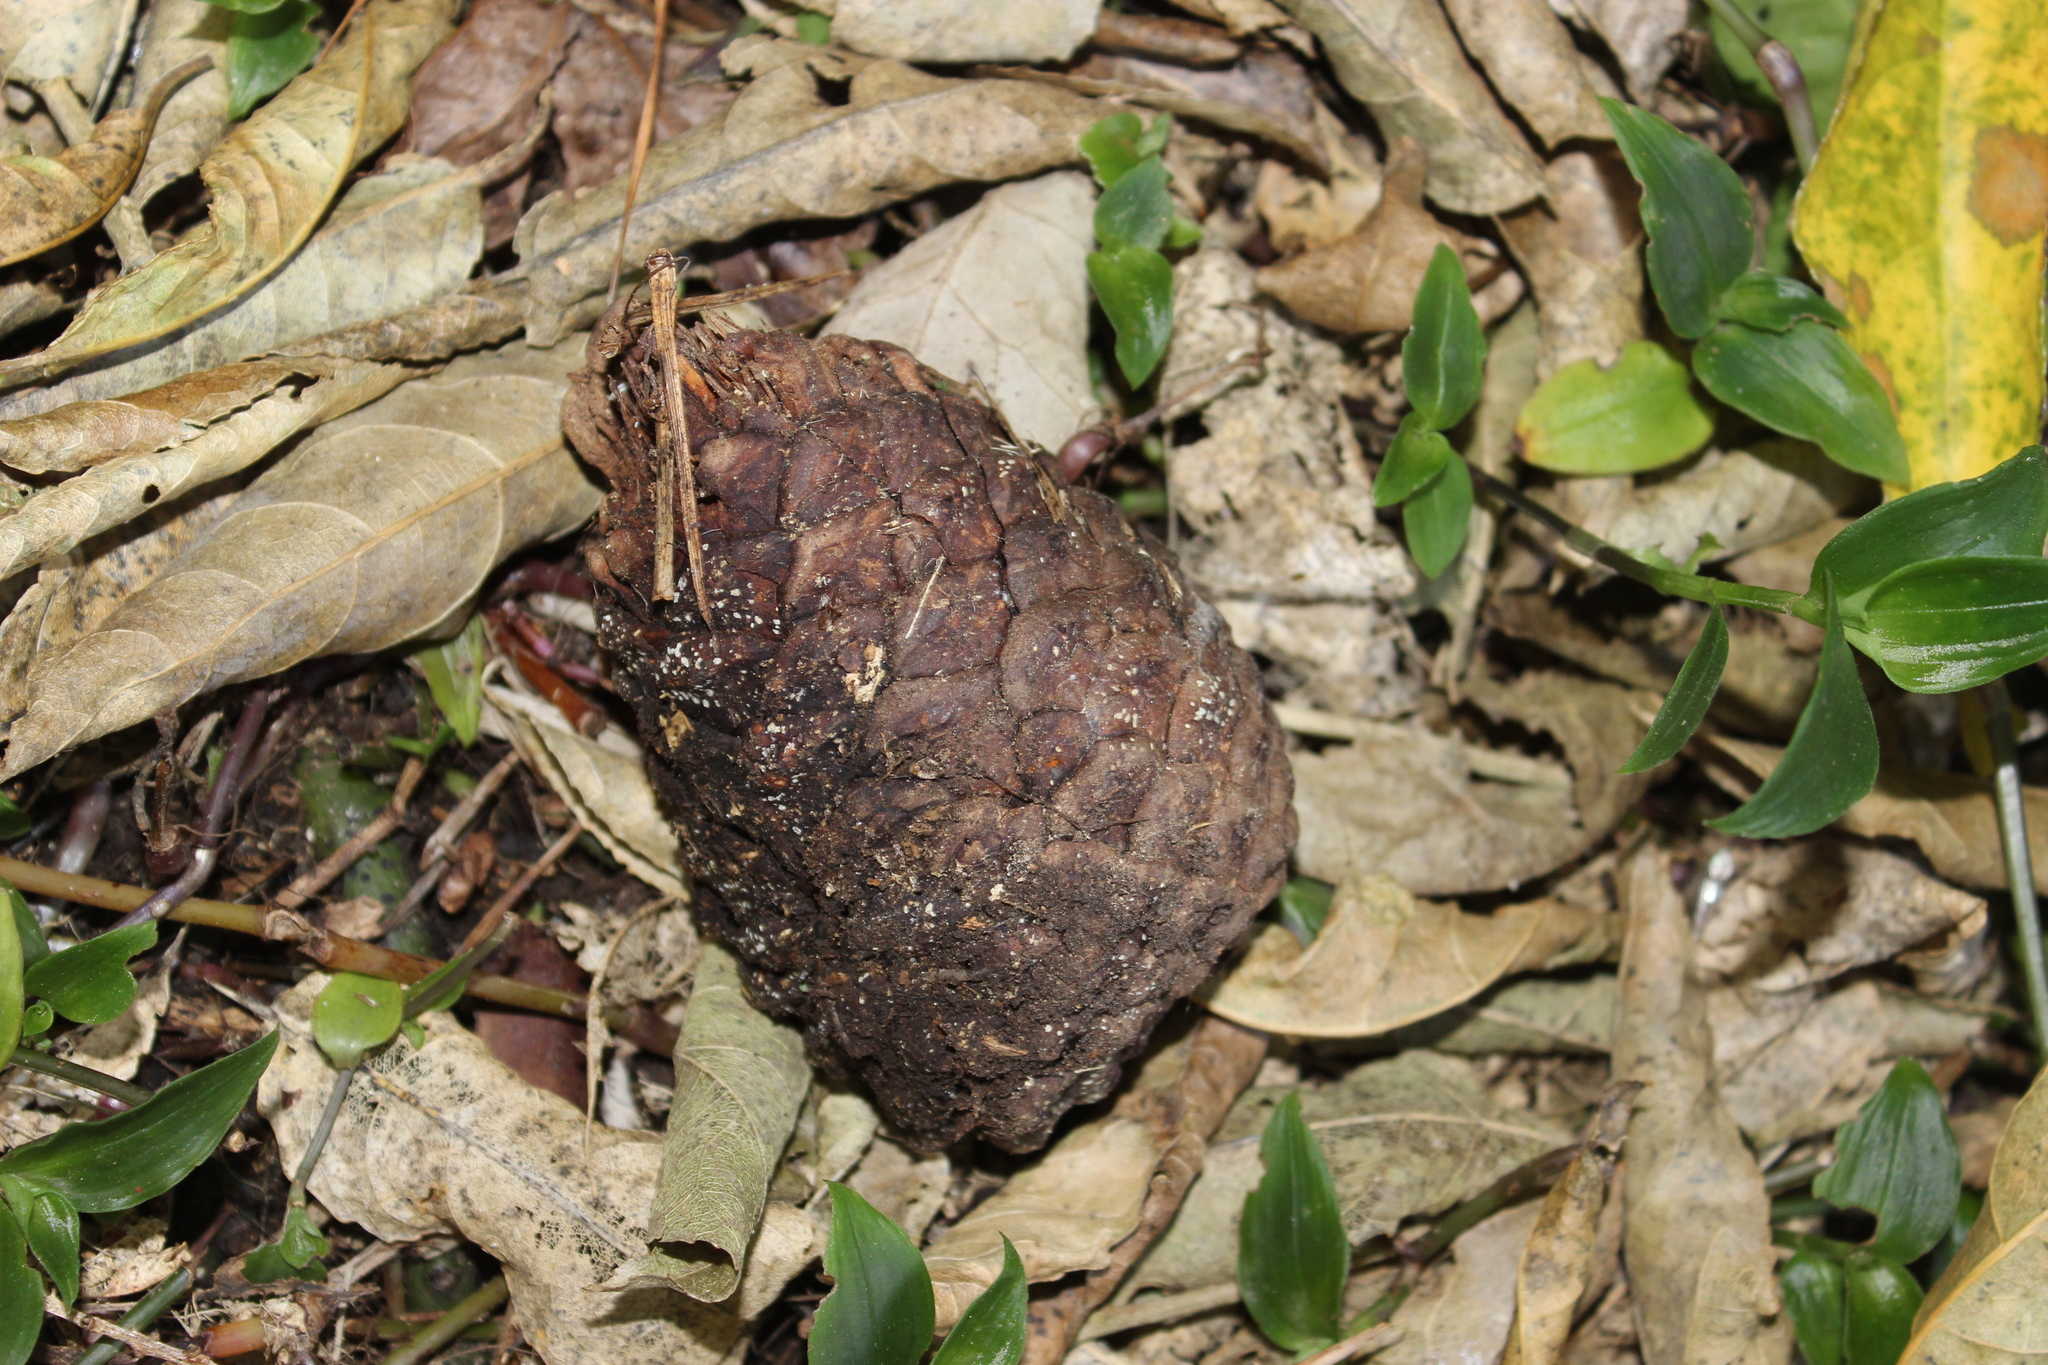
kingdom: Plantae
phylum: Tracheophyta
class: Pinopsida
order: Pinales
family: Pinaceae
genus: Pinus
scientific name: Pinus radiata
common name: Monterey pine
